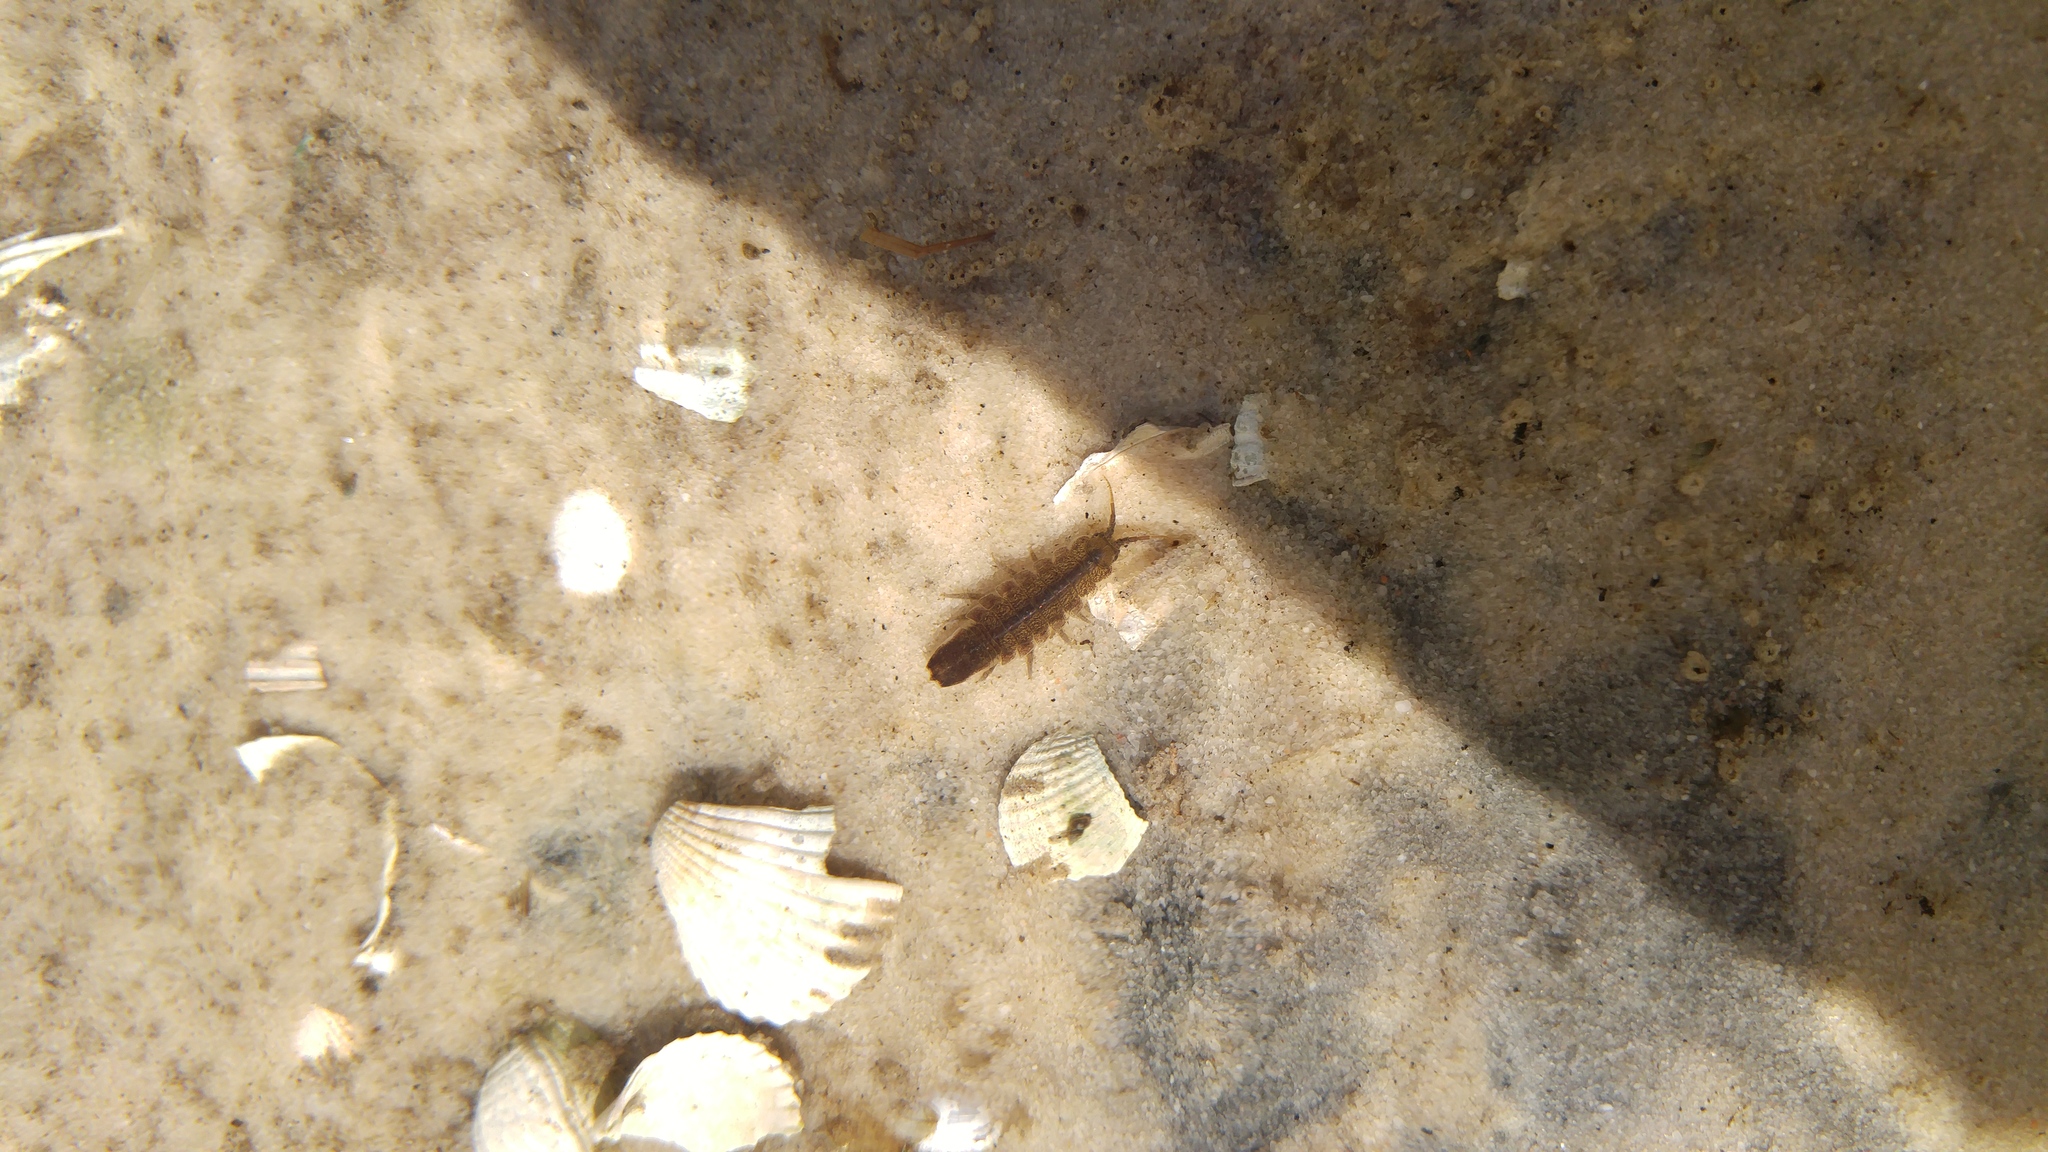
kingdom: Animalia
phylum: Arthropoda
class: Malacostraca
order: Isopoda
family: Idoteidae
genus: Idotea
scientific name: Idotea balthica
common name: Baltic isopod
